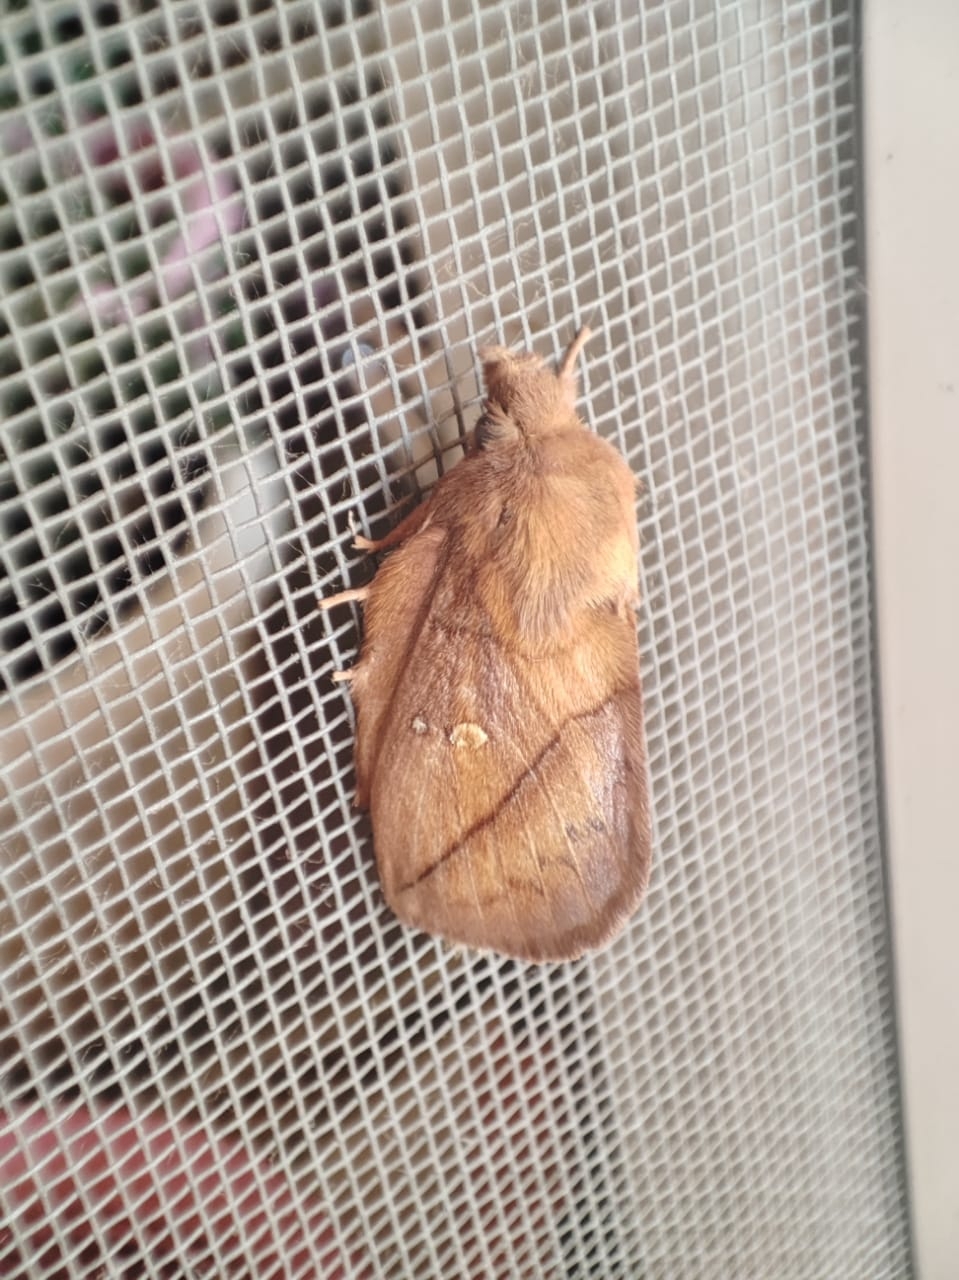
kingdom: Animalia
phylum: Arthropoda
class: Insecta
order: Lepidoptera
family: Lasiocampidae
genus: Euthrix
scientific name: Euthrix potatoria
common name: Drinker
